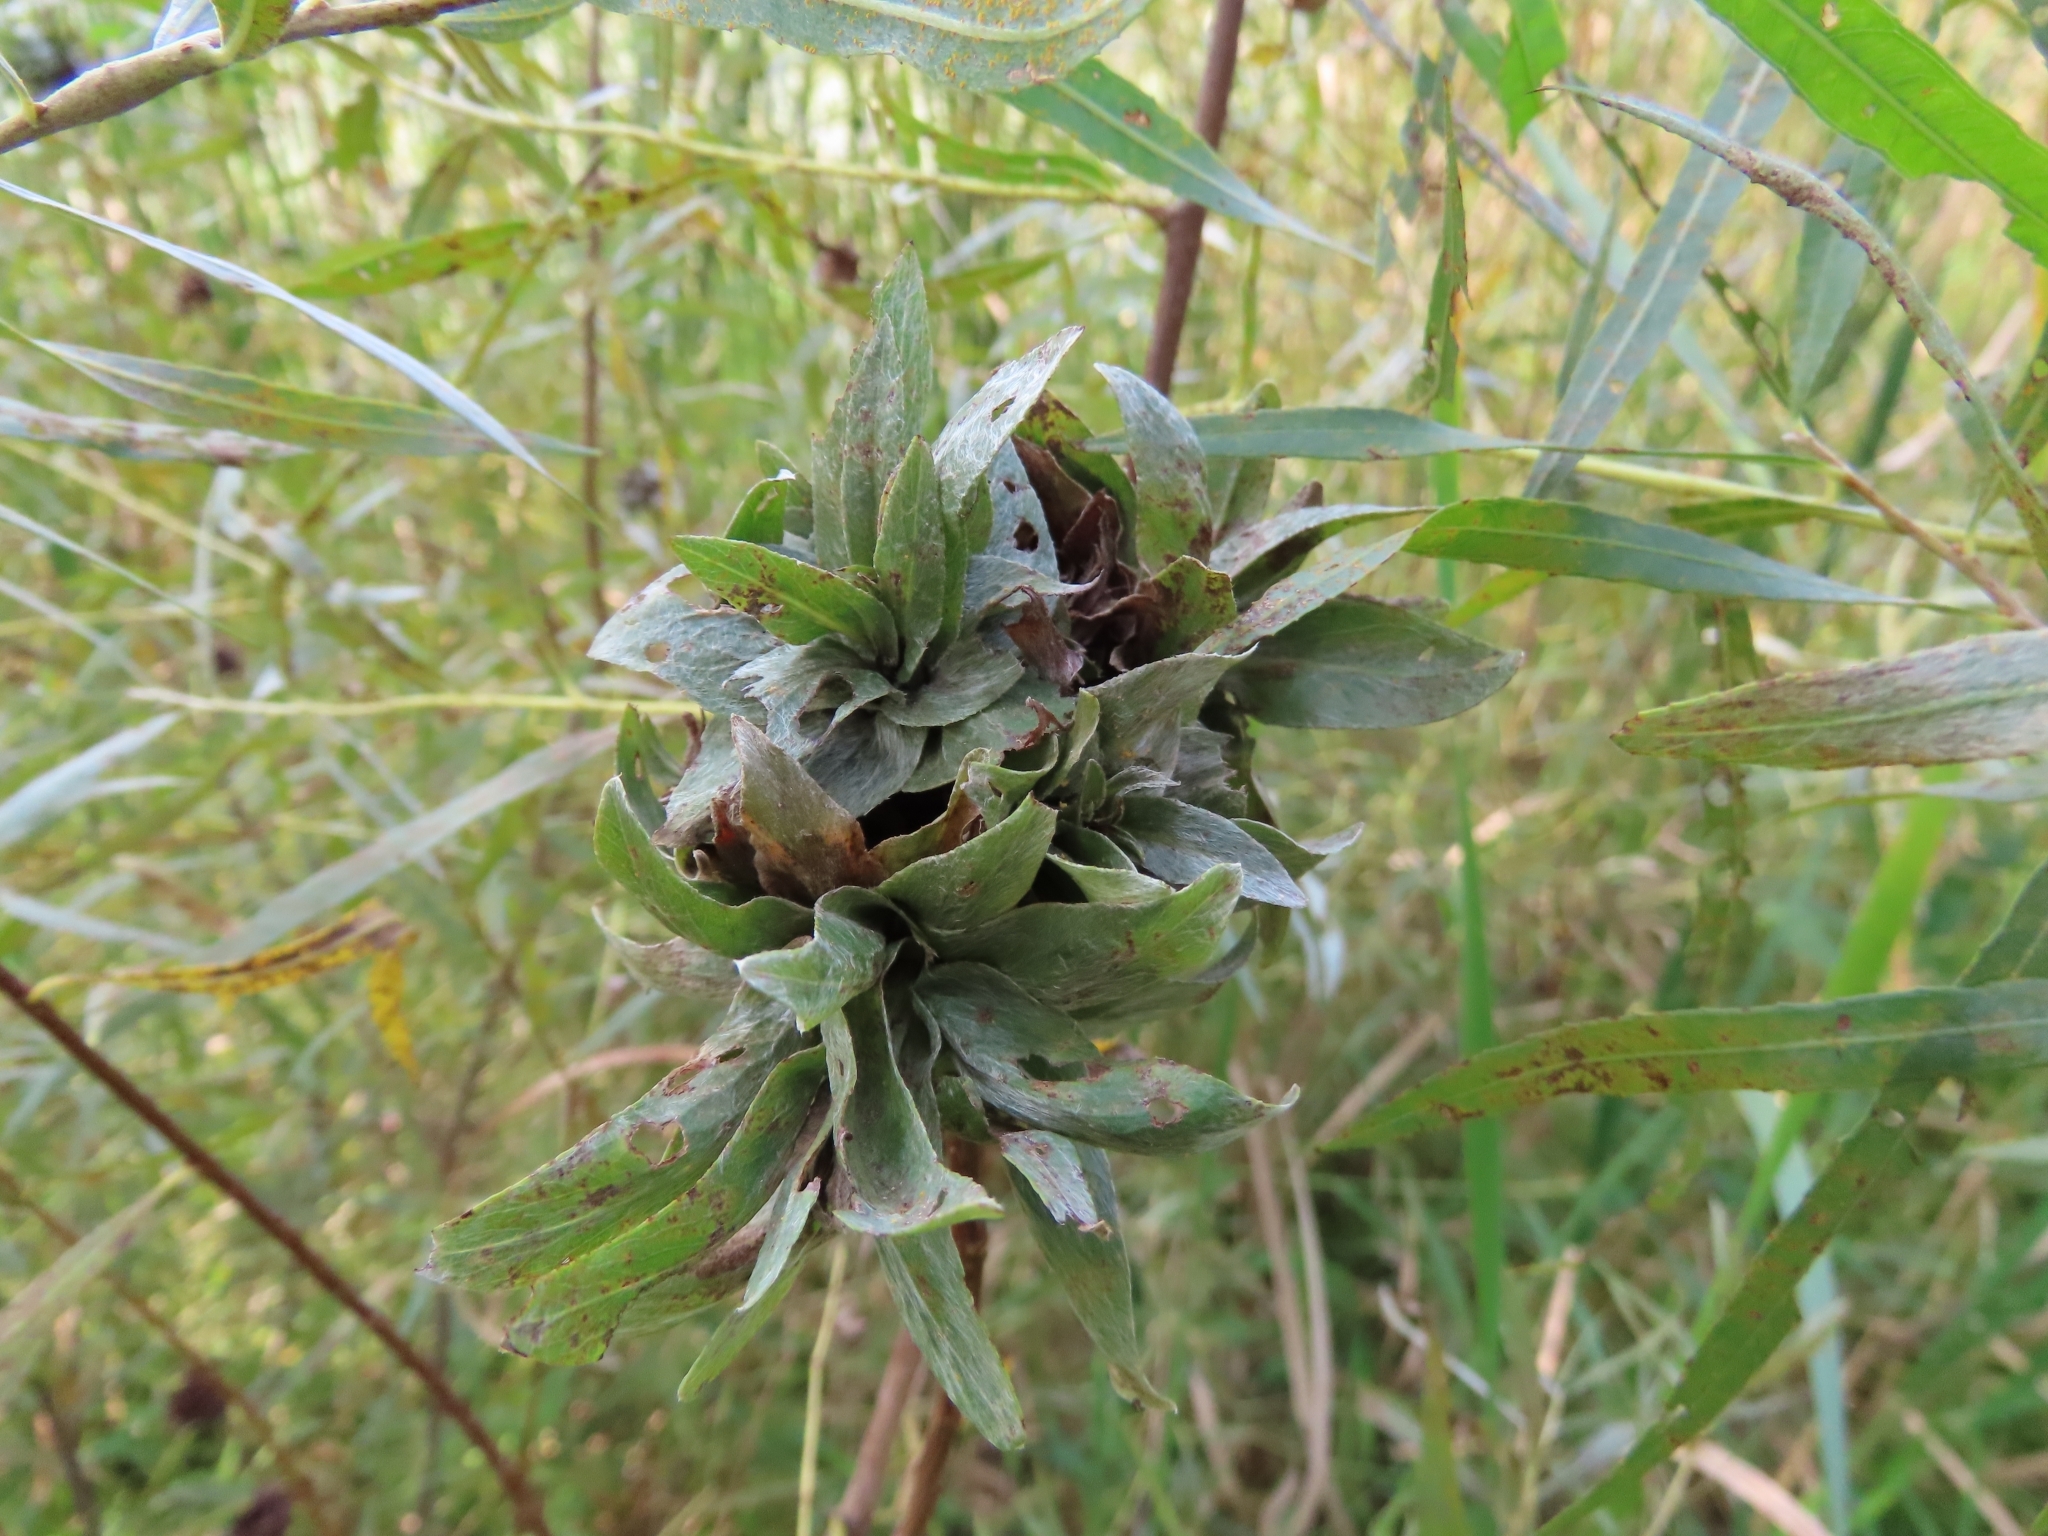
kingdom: Animalia
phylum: Arthropoda
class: Insecta
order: Diptera
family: Cecidomyiidae
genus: Rabdophaga
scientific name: Rabdophaga salicisbrassicoides
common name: Willow cabbagegall midge
